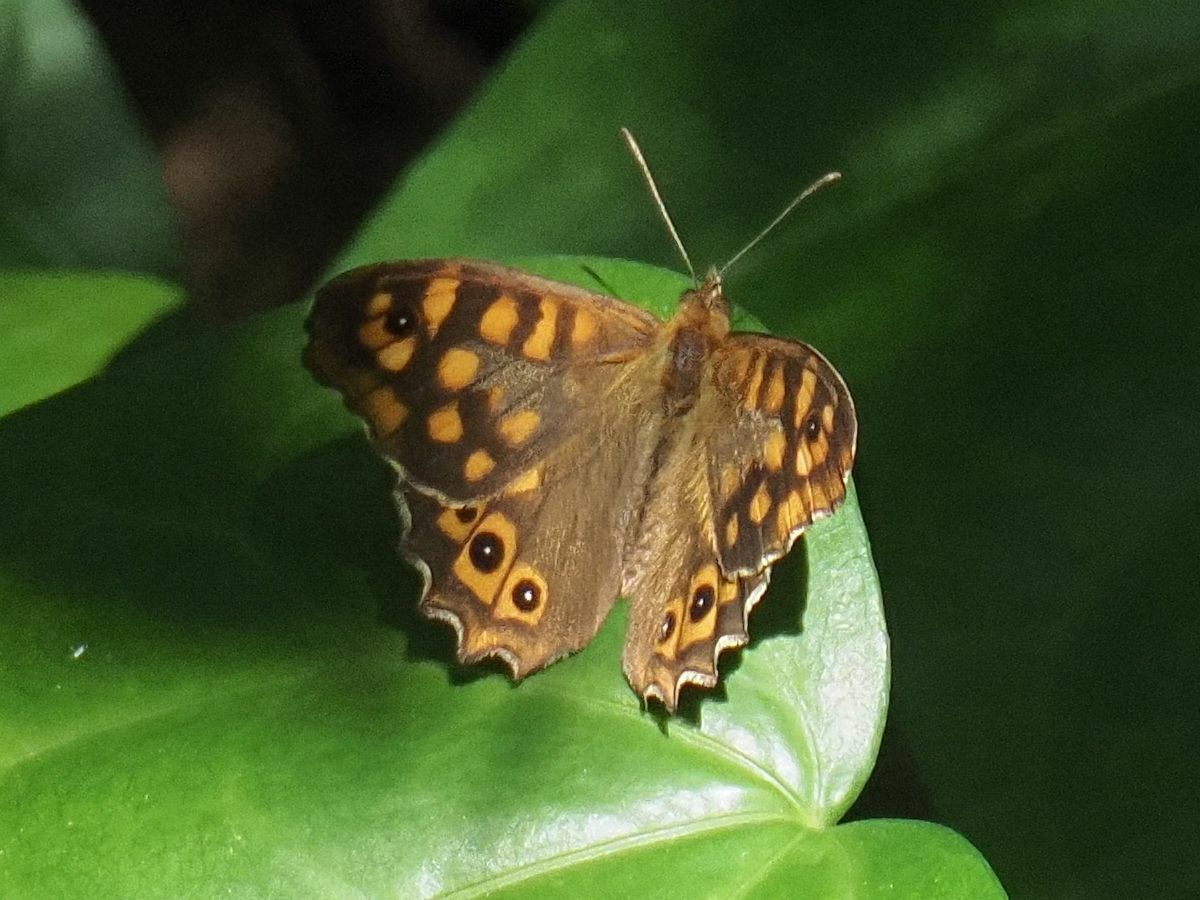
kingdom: Animalia
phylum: Arthropoda
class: Insecta
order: Lepidoptera
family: Nymphalidae
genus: Pararge
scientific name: Pararge aegeria
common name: Speckled wood
